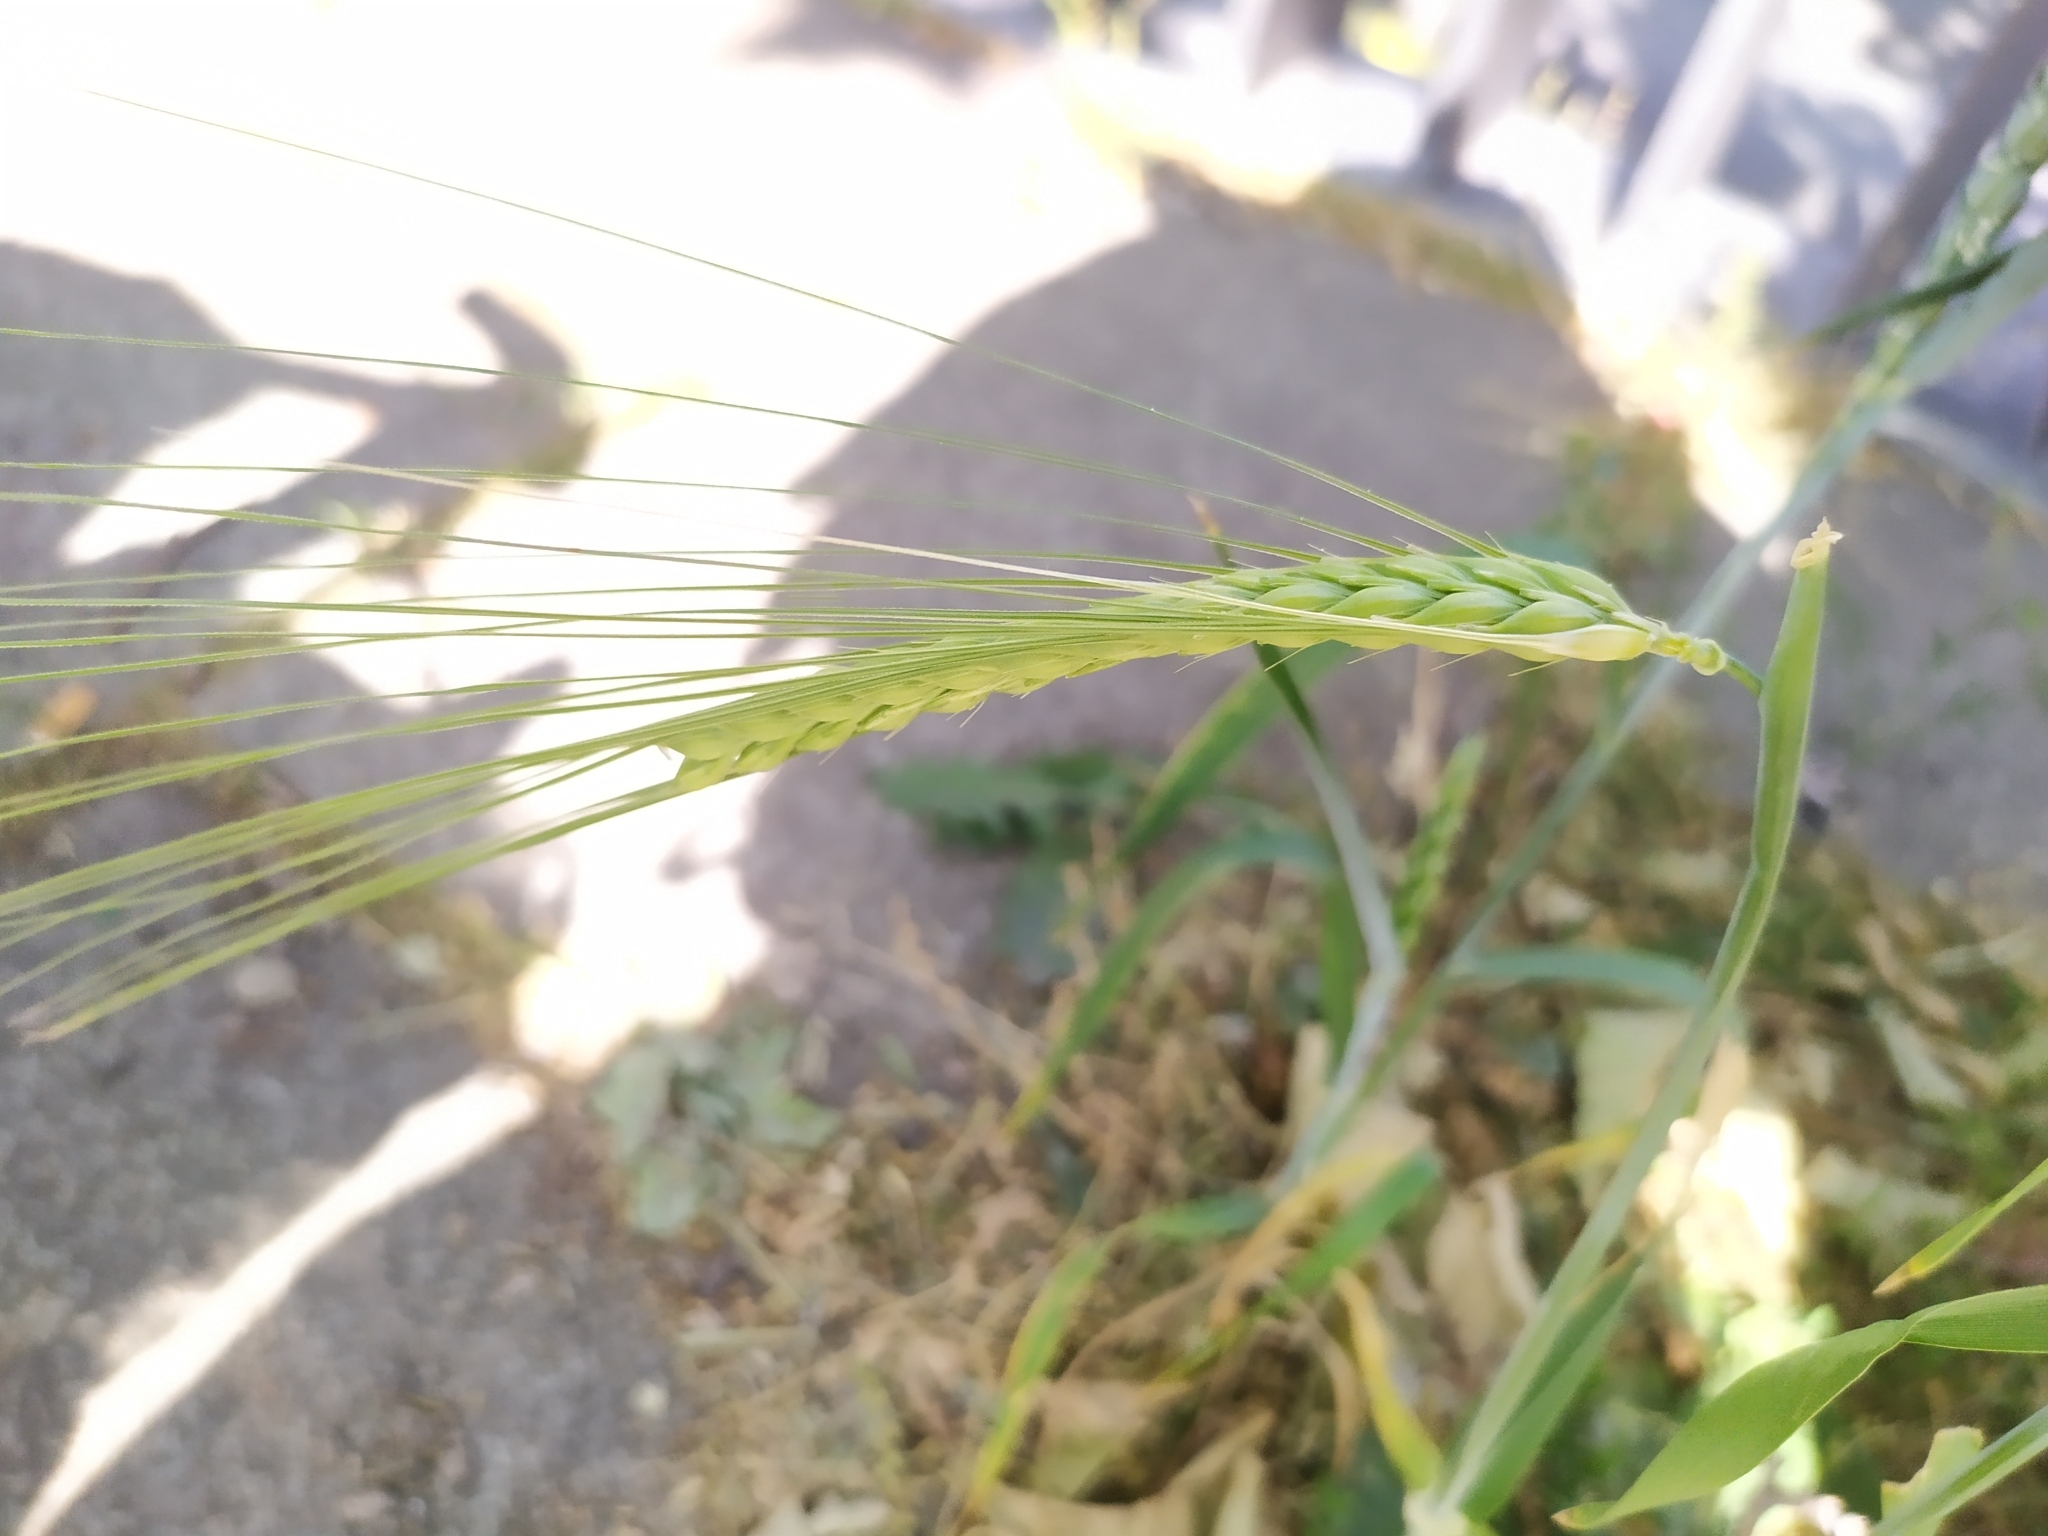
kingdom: Plantae
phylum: Tracheophyta
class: Liliopsida
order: Poales
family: Poaceae
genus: Hordeum
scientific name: Hordeum distichon
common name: Two-rowed barley
